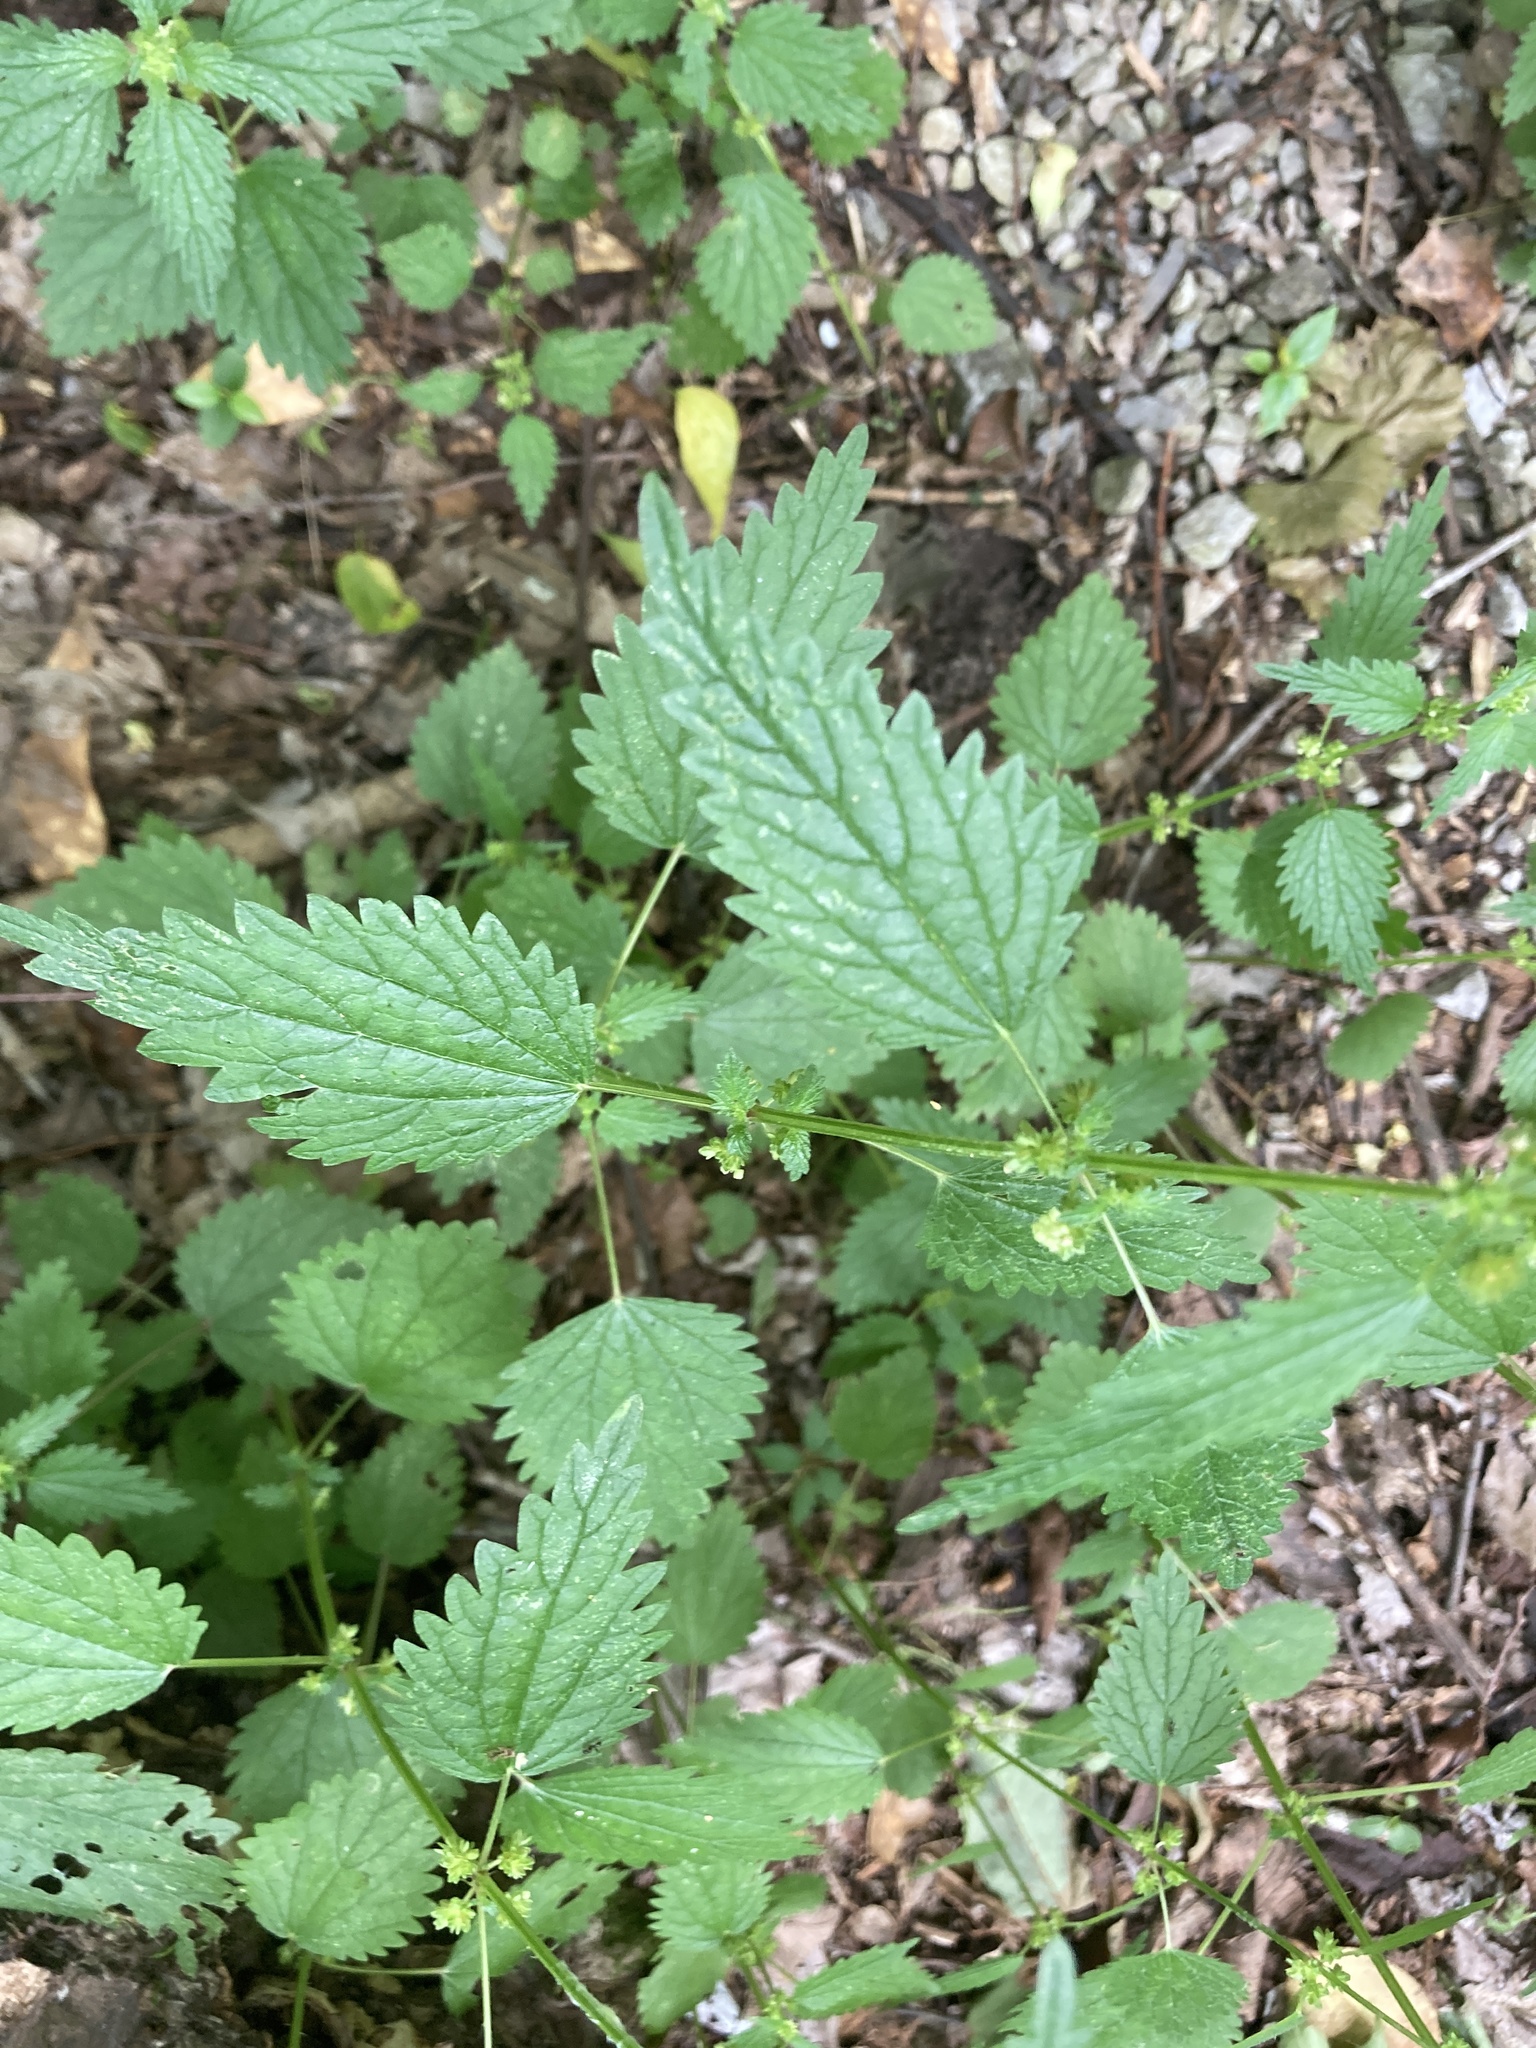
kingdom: Plantae
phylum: Tracheophyta
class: Magnoliopsida
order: Rosales
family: Urticaceae
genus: Urtica
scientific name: Urtica chamaedryoides
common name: Heart-leaf nettle
